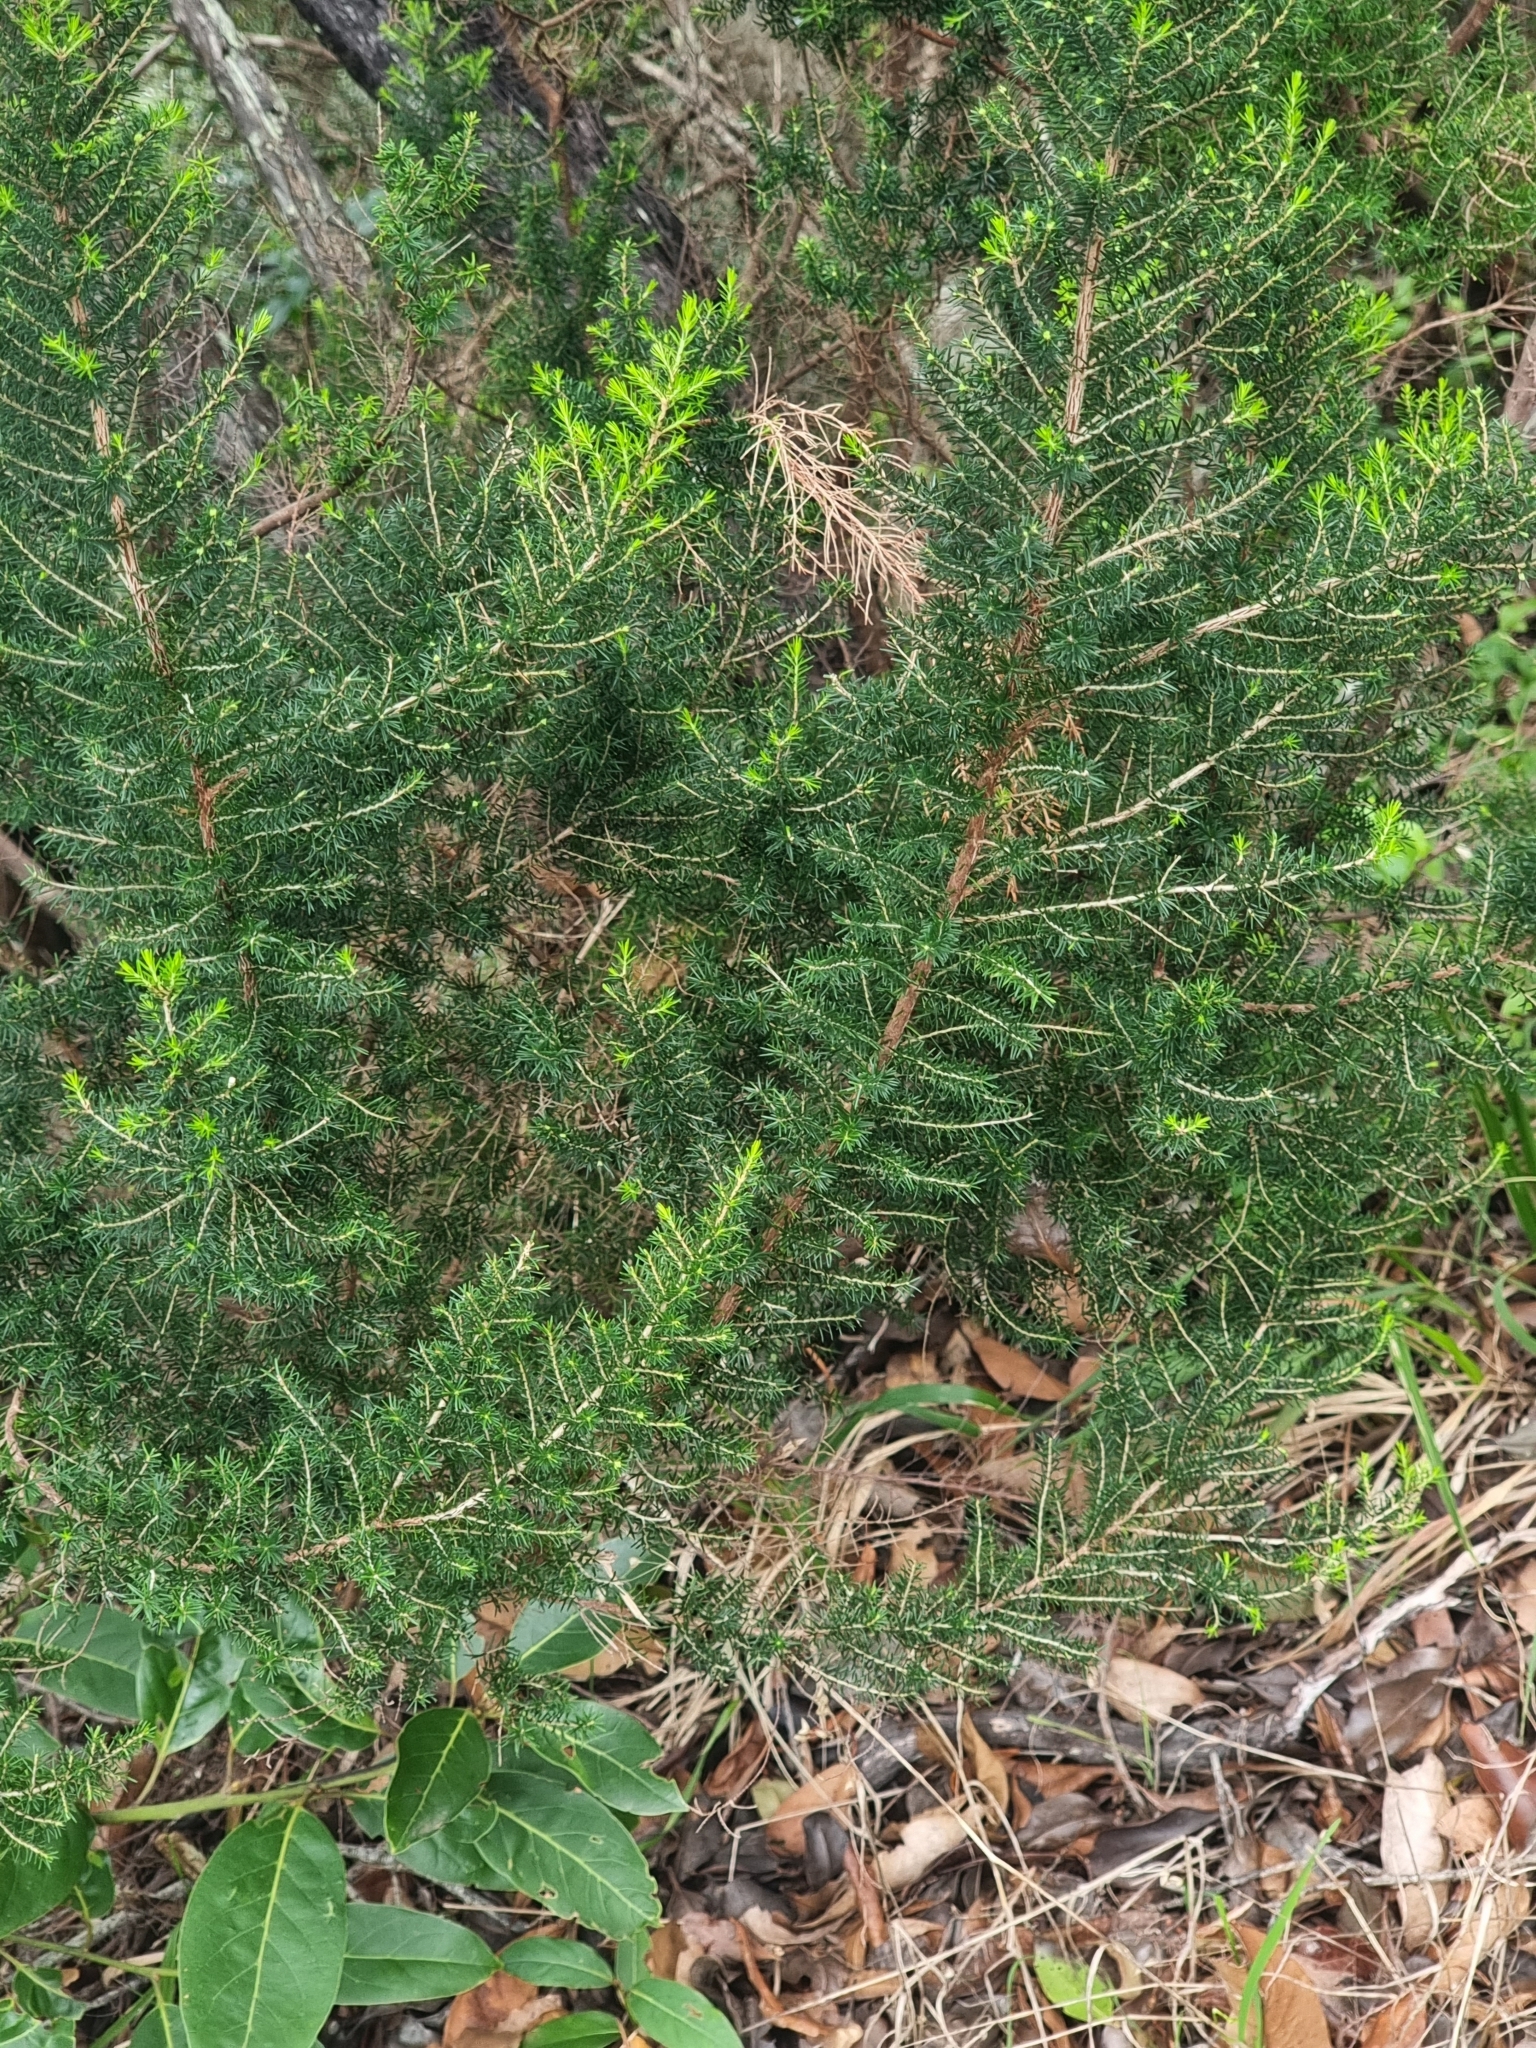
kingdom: Plantae
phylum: Tracheophyta
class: Magnoliopsida
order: Ericales
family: Ericaceae
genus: Erica
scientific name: Erica canariensis
